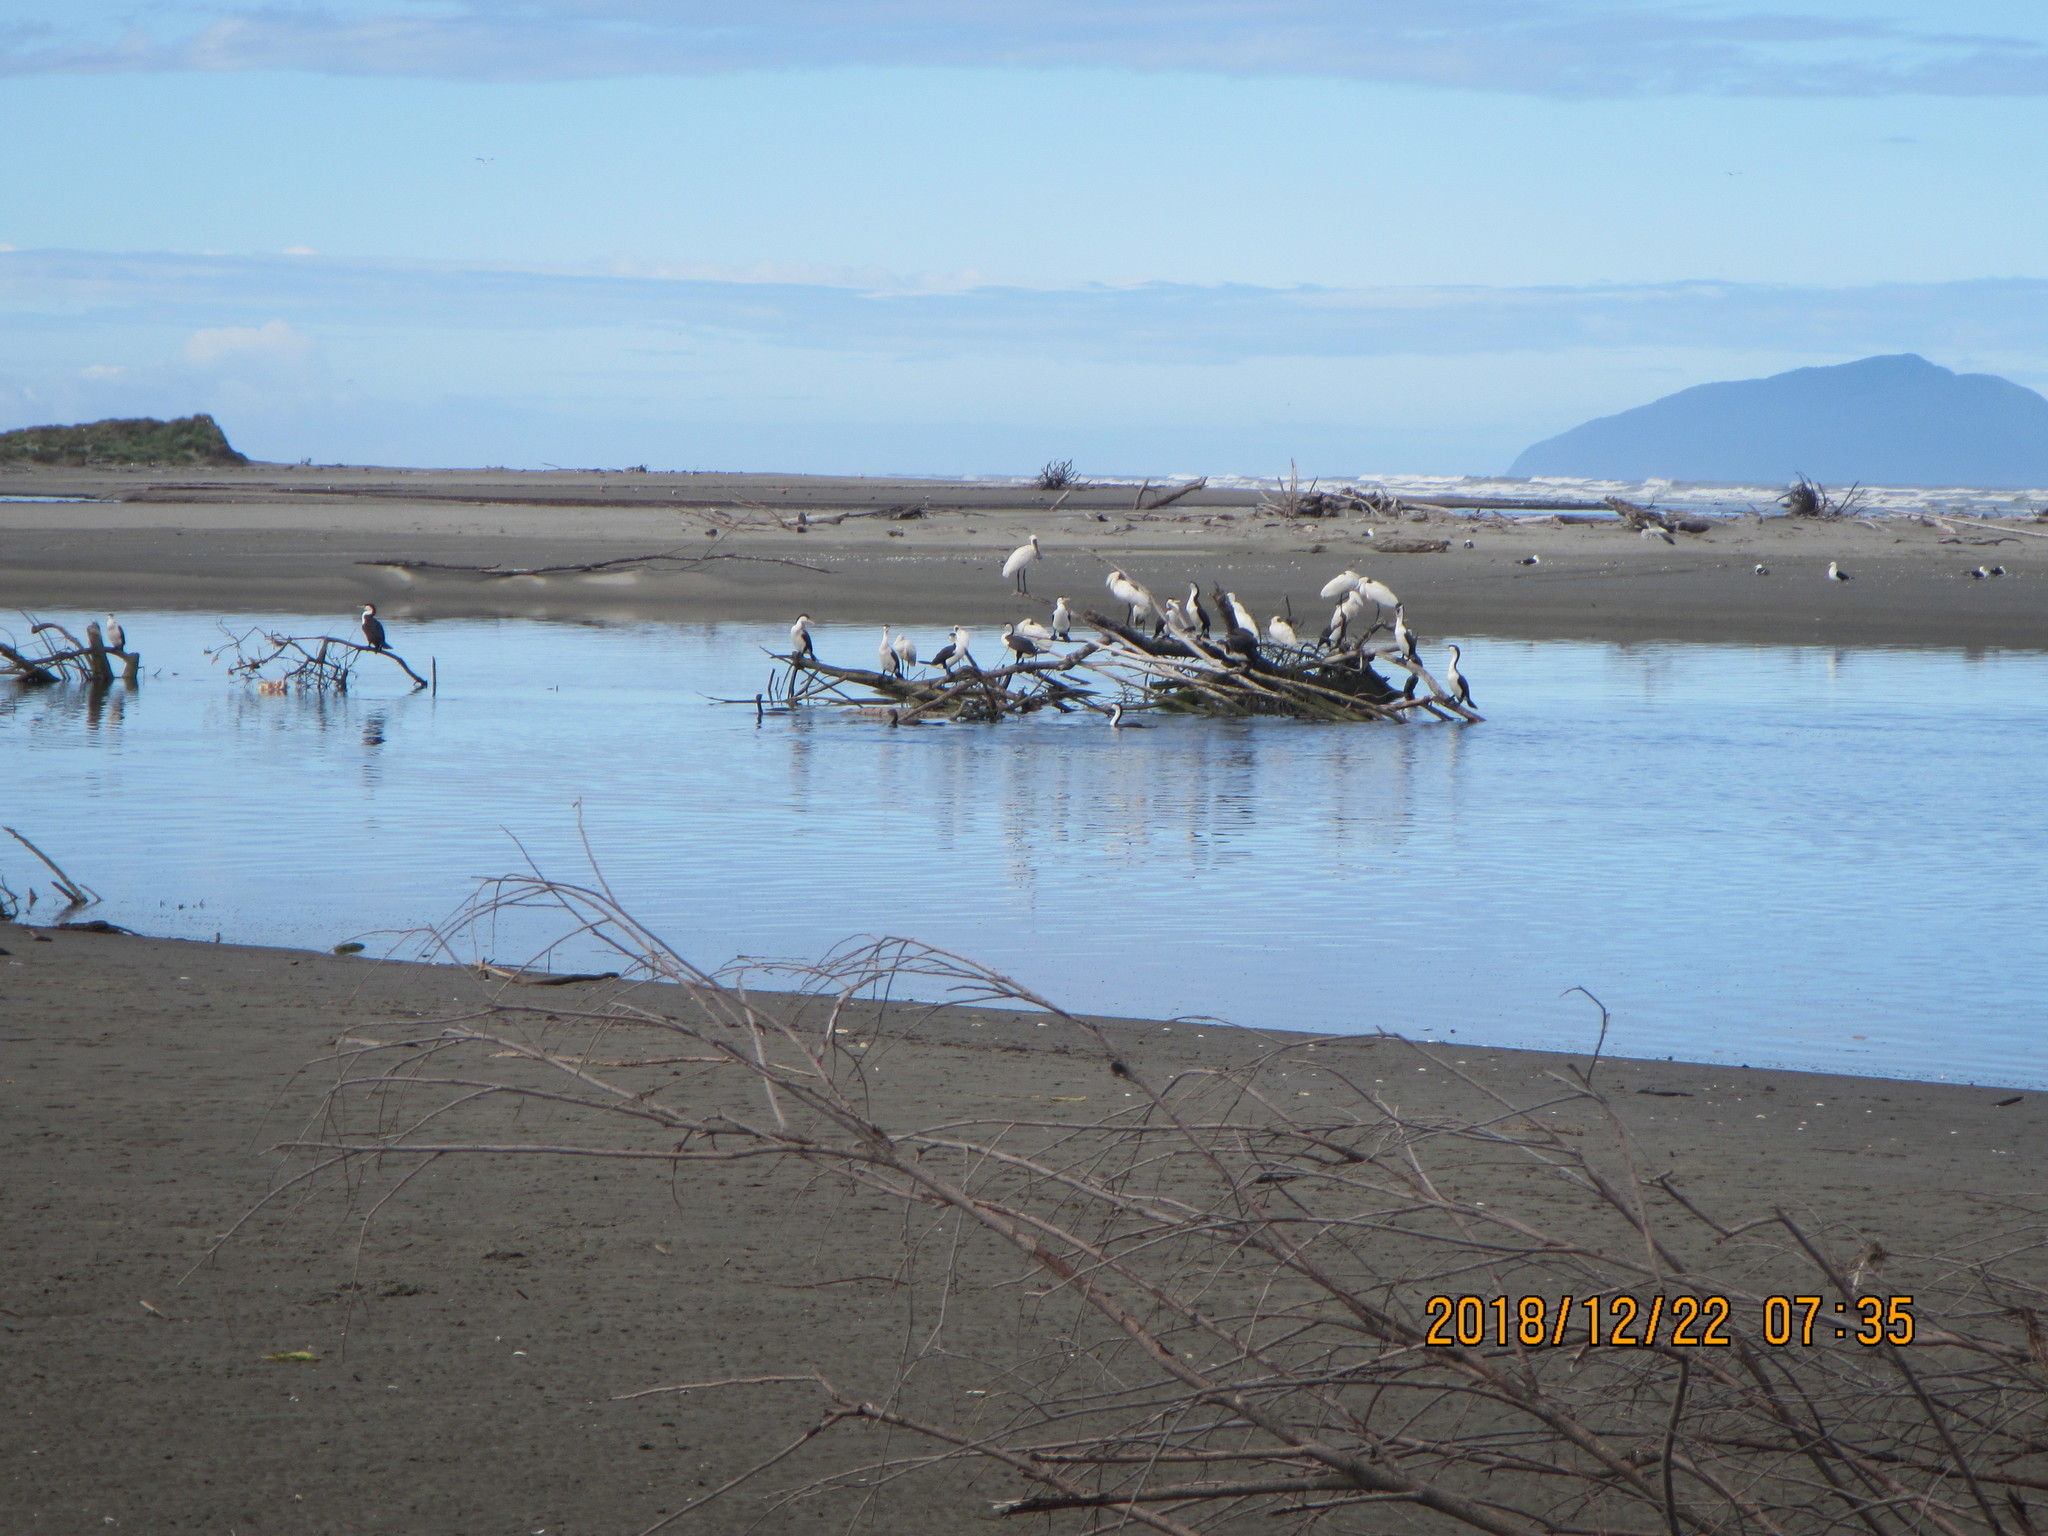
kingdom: Animalia
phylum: Chordata
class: Aves
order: Suliformes
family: Phalacrocoracidae
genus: Phalacrocorax
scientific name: Phalacrocorax varius
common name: Pied cormorant
